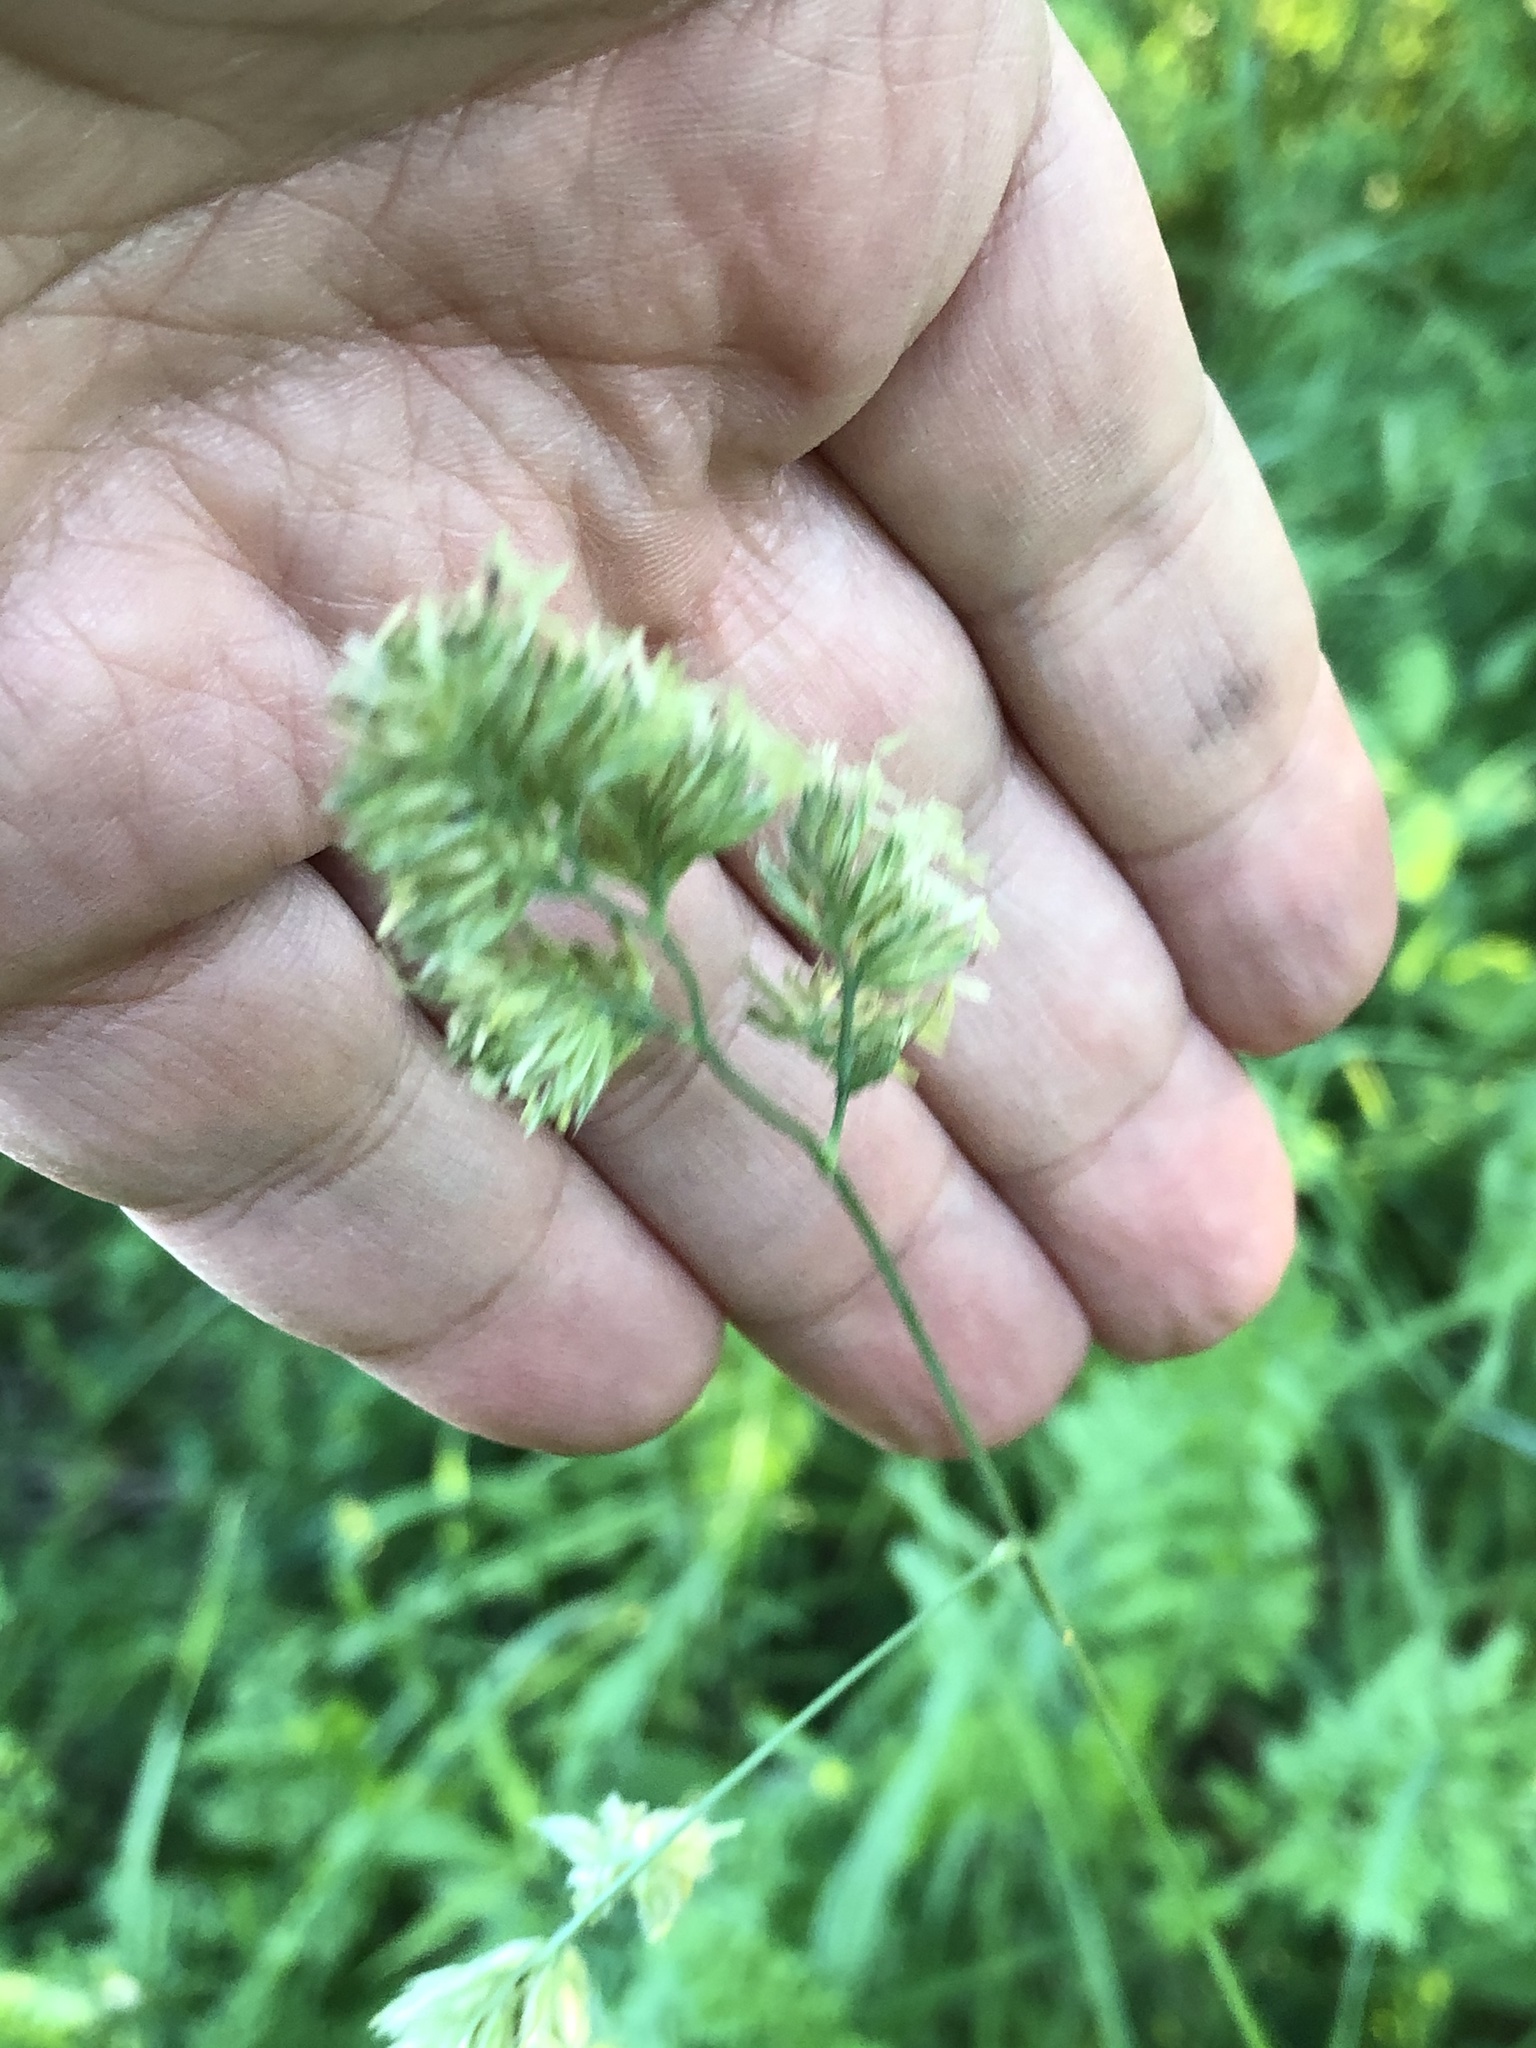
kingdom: Plantae
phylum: Tracheophyta
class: Liliopsida
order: Poales
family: Poaceae
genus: Dactylis
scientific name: Dactylis glomerata
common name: Orchardgrass
